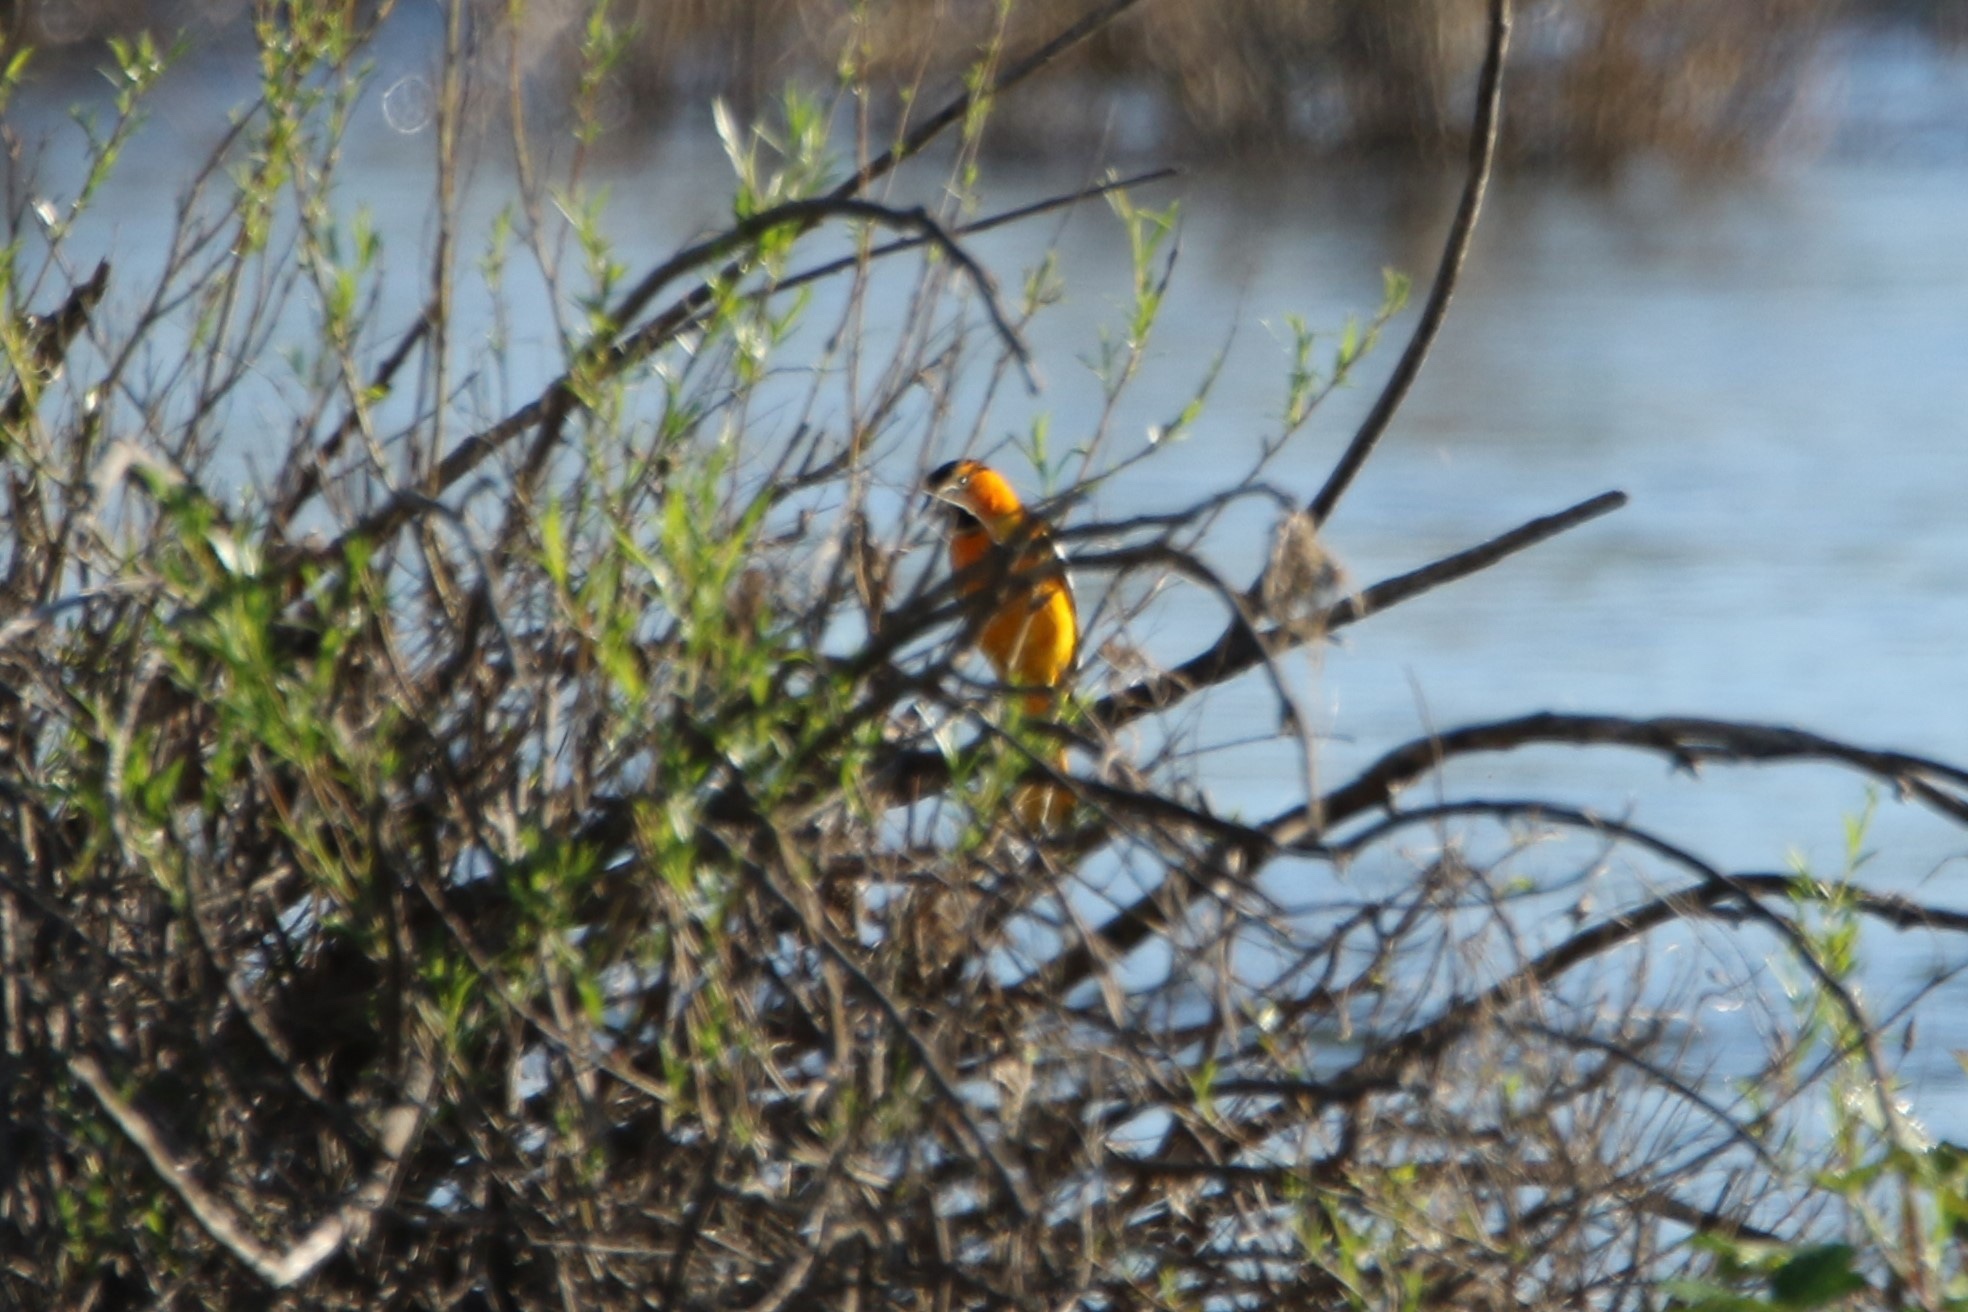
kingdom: Animalia
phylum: Chordata
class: Aves
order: Passeriformes
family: Icteridae
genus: Icterus
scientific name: Icterus bullockii
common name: Bullock's oriole
